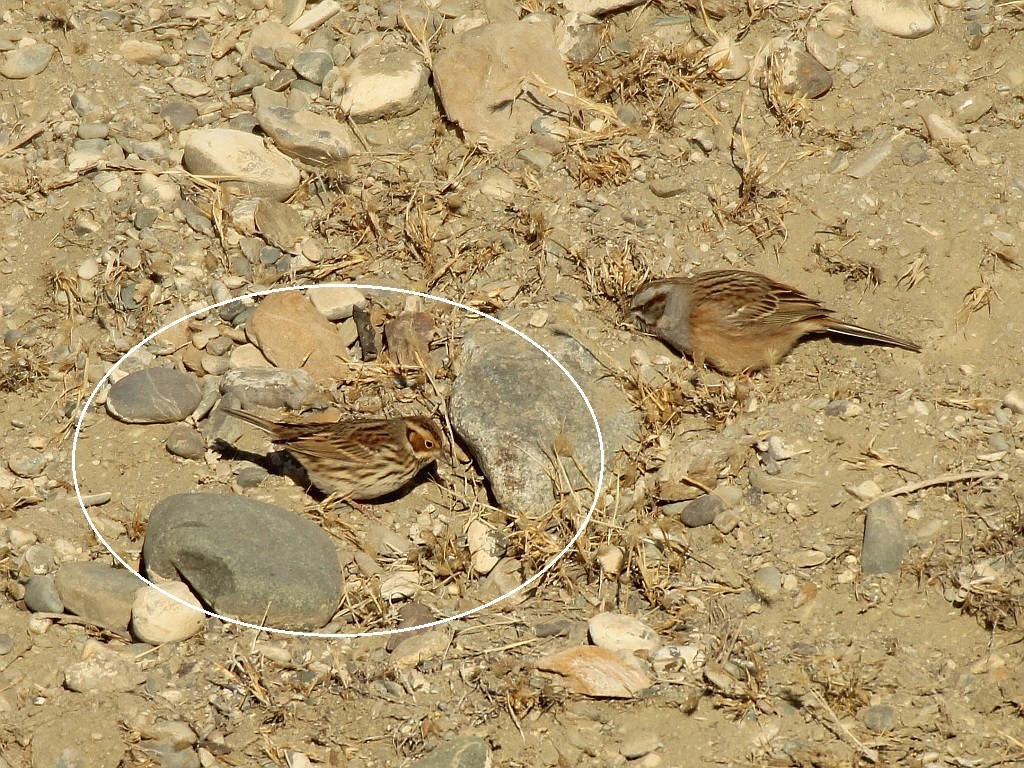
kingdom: Animalia
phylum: Chordata
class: Aves
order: Passeriformes
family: Emberizidae
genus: Emberiza
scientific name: Emberiza pusilla
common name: Little bunting
